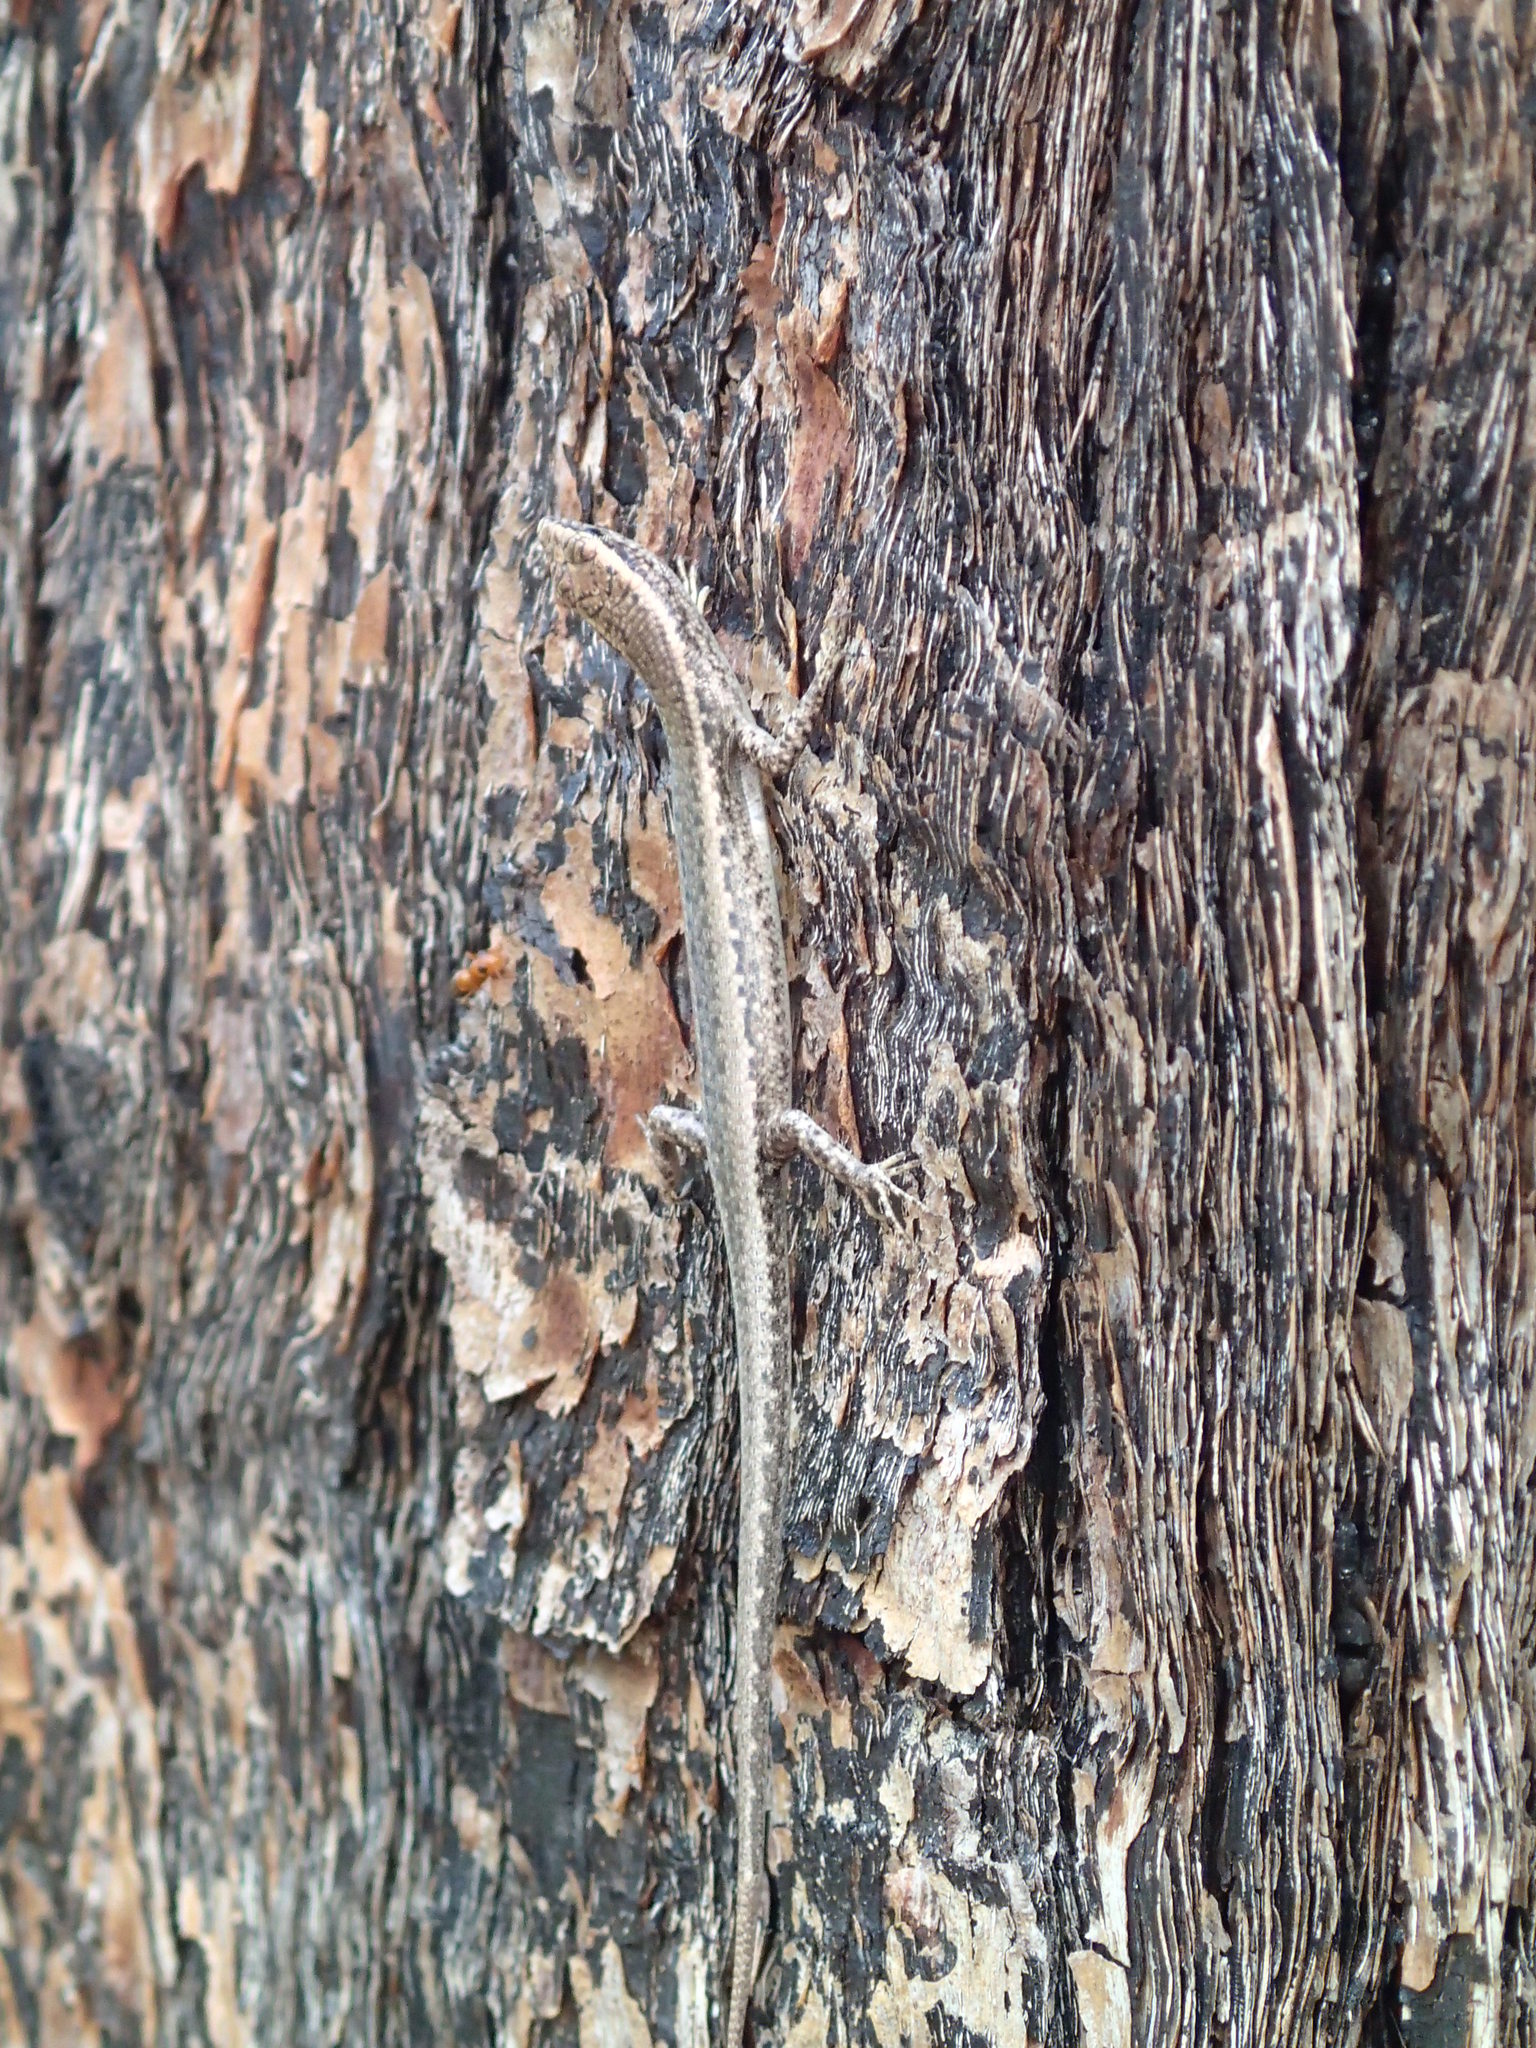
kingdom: Animalia
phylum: Chordata
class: Squamata
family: Scincidae
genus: Cryptoblepharus
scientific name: Cryptoblepharus
